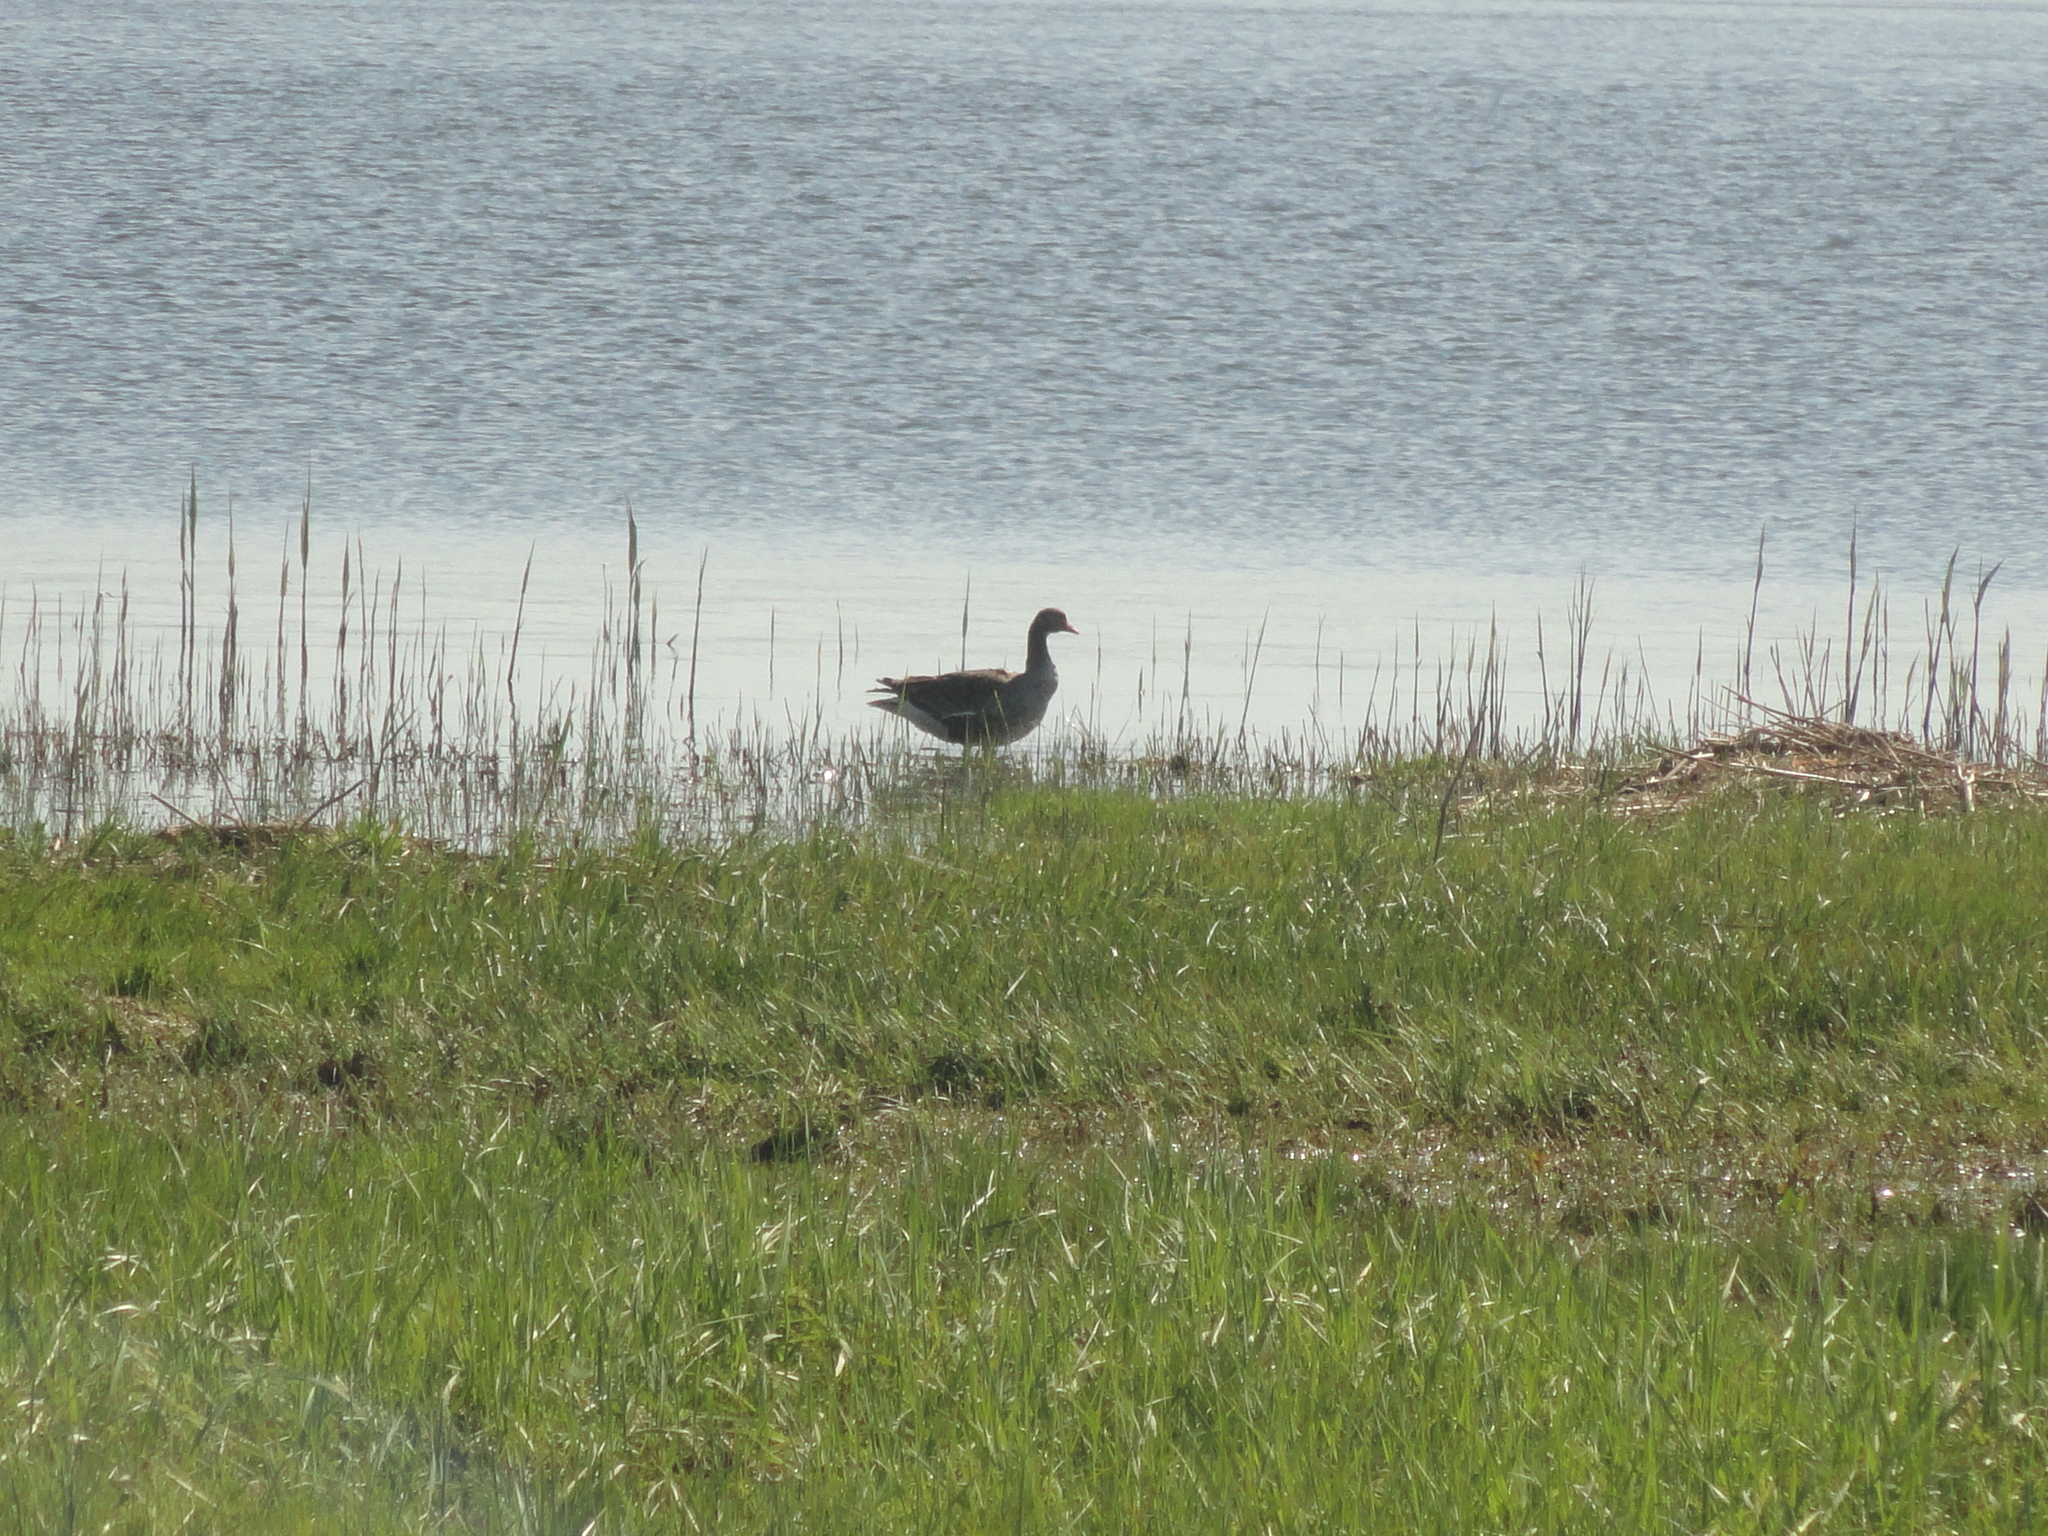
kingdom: Animalia
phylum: Chordata
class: Aves
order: Anseriformes
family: Anatidae
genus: Anser
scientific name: Anser albifrons
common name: Greater white-fronted goose
